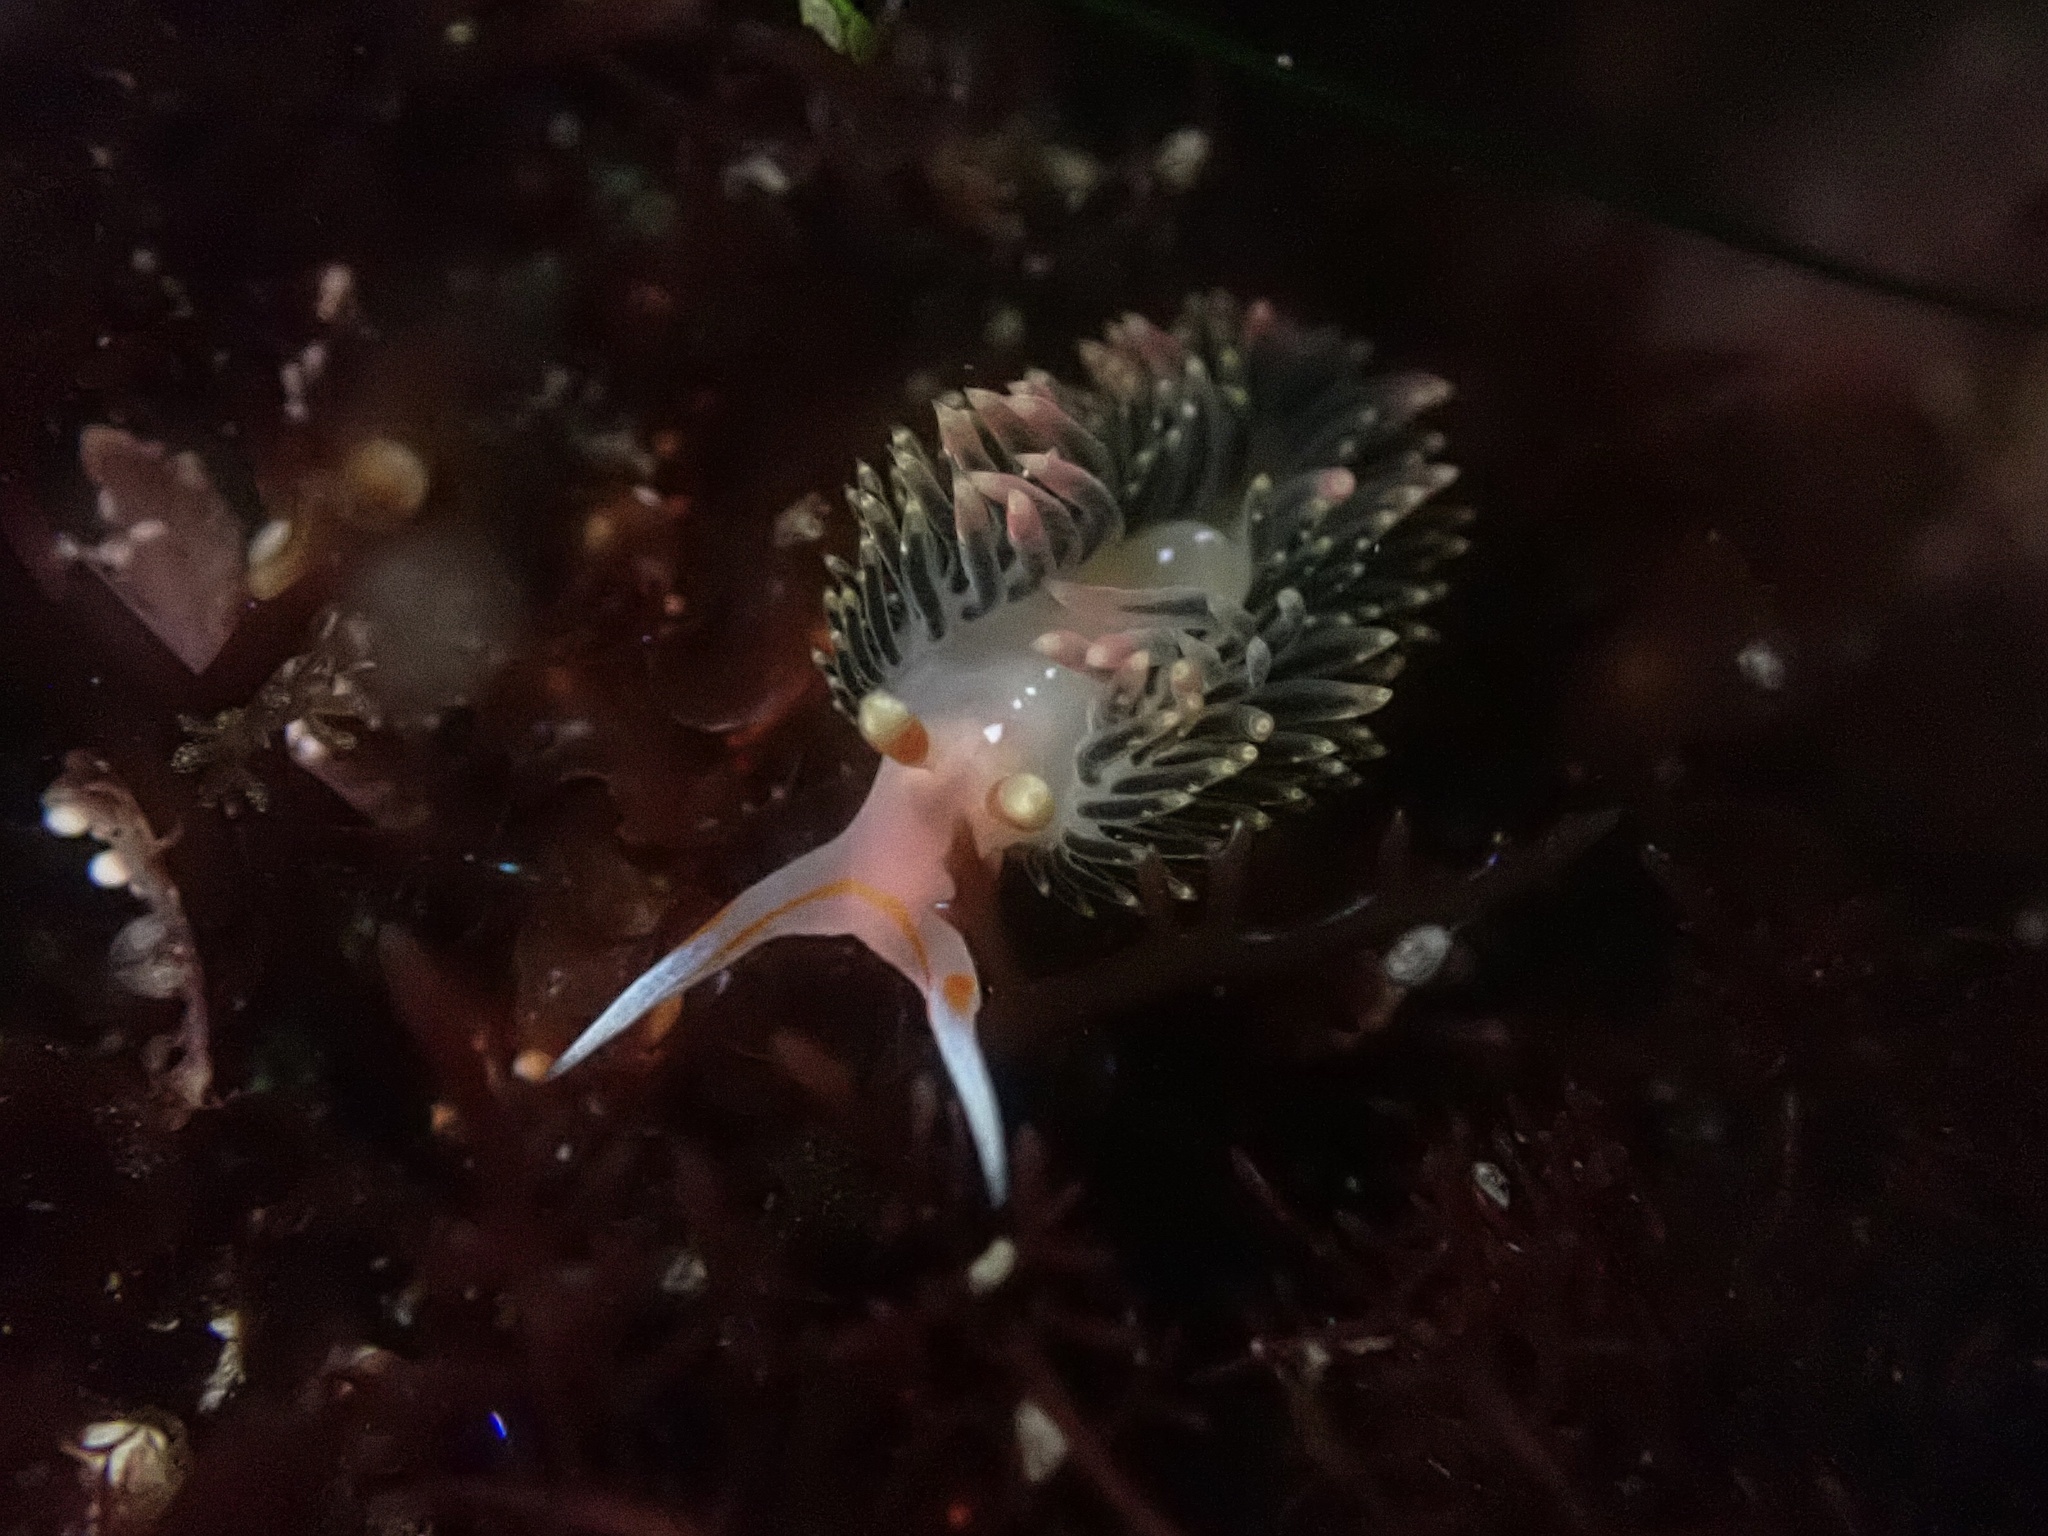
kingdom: Animalia
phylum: Mollusca
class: Gastropoda
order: Nudibranchia
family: Facelinidae
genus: Phidiana
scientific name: Phidiana hiltoni
